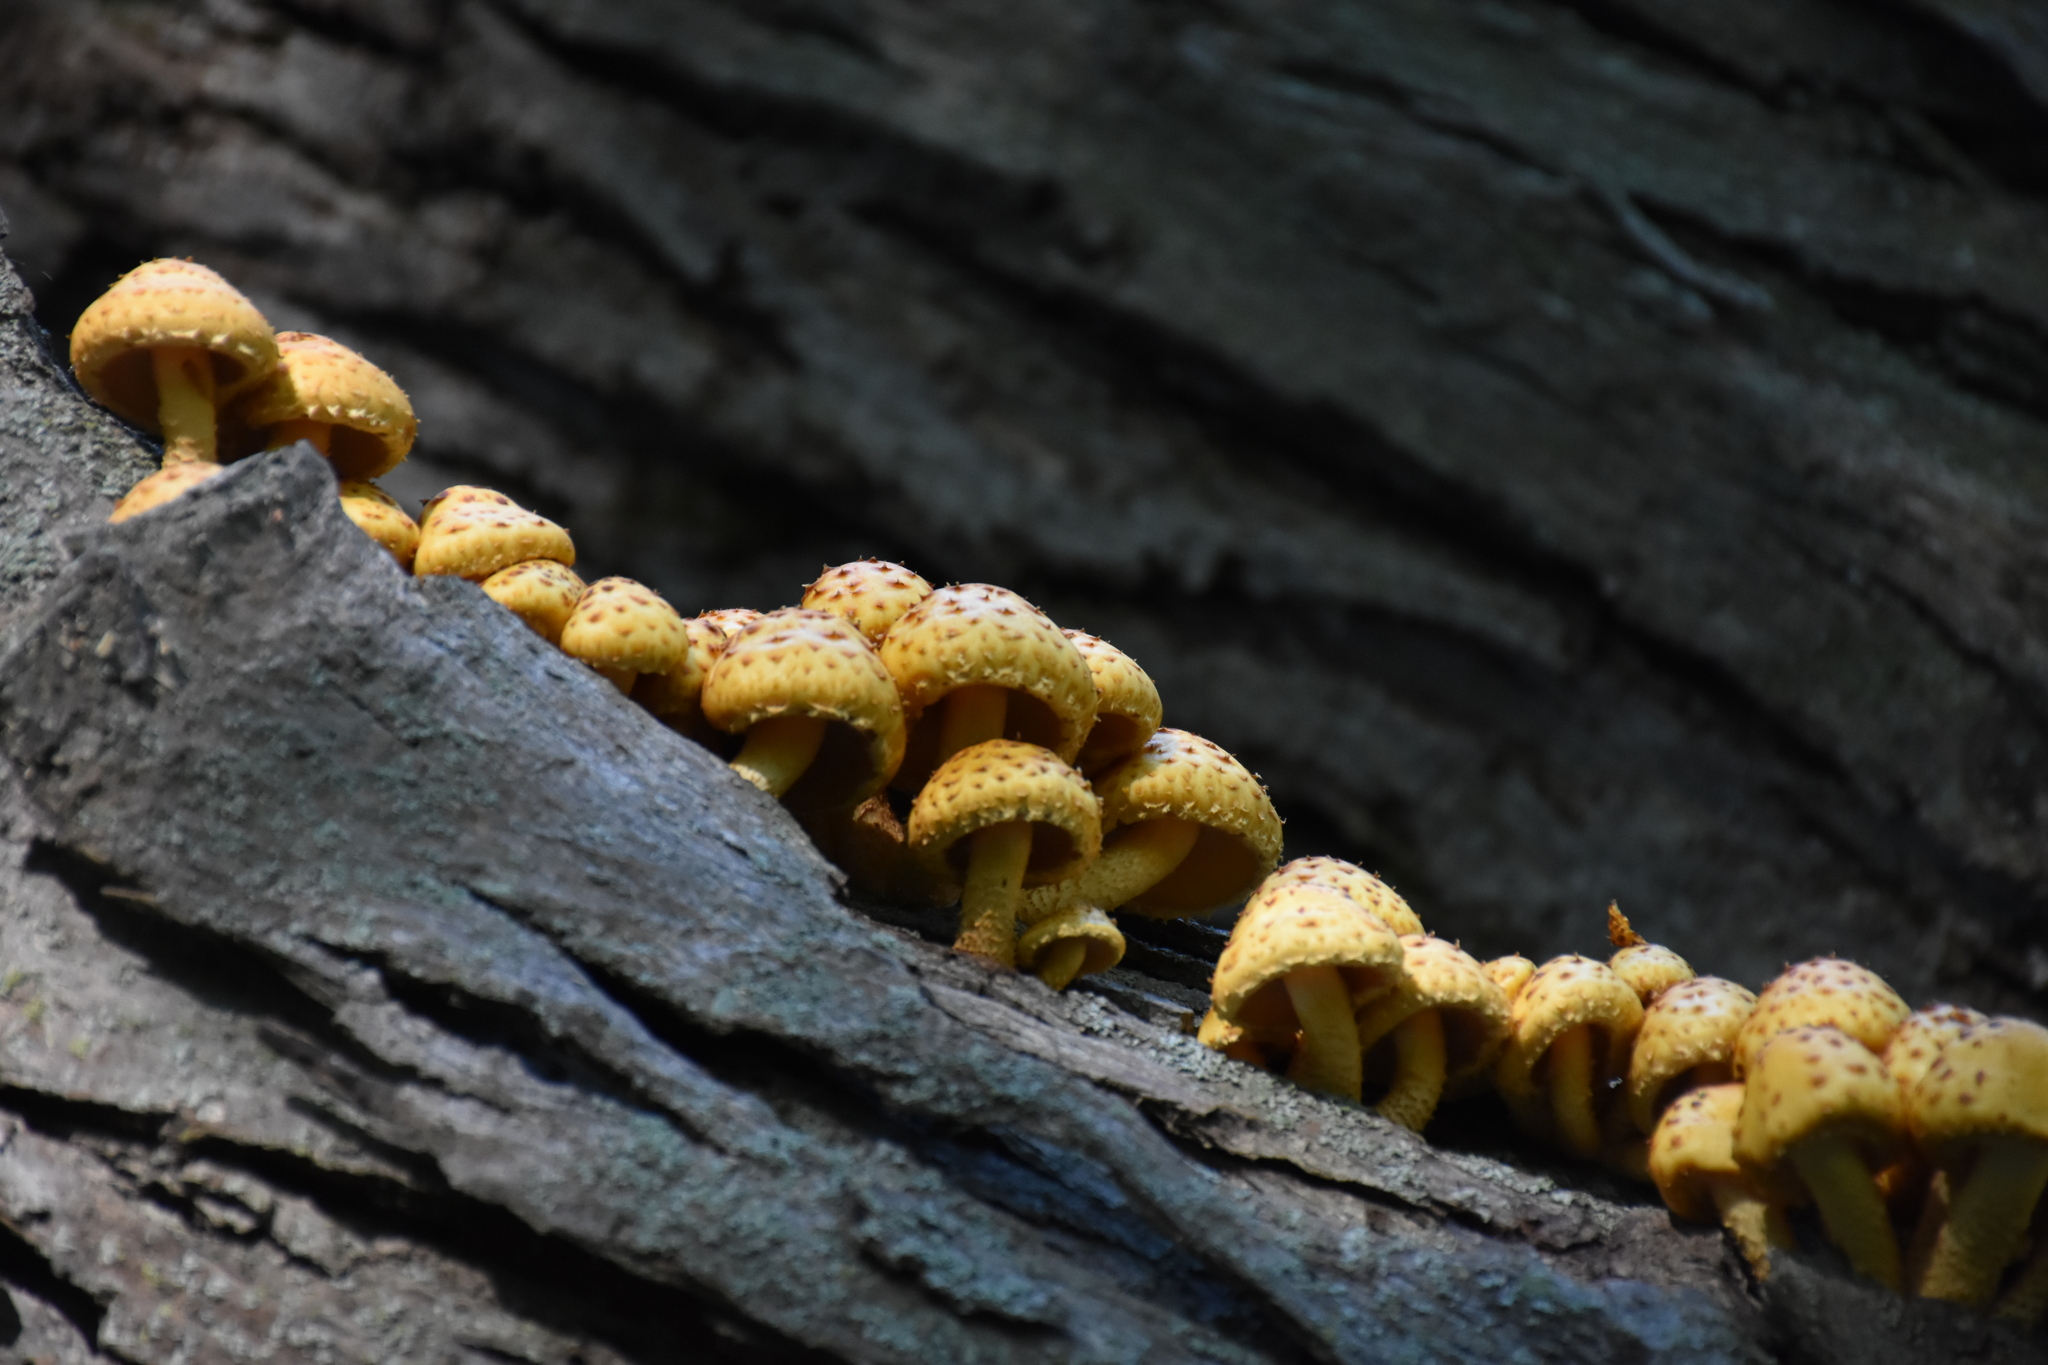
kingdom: Fungi
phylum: Basidiomycota
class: Agaricomycetes
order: Agaricales
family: Strophariaceae
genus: Pholiota
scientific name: Pholiota
